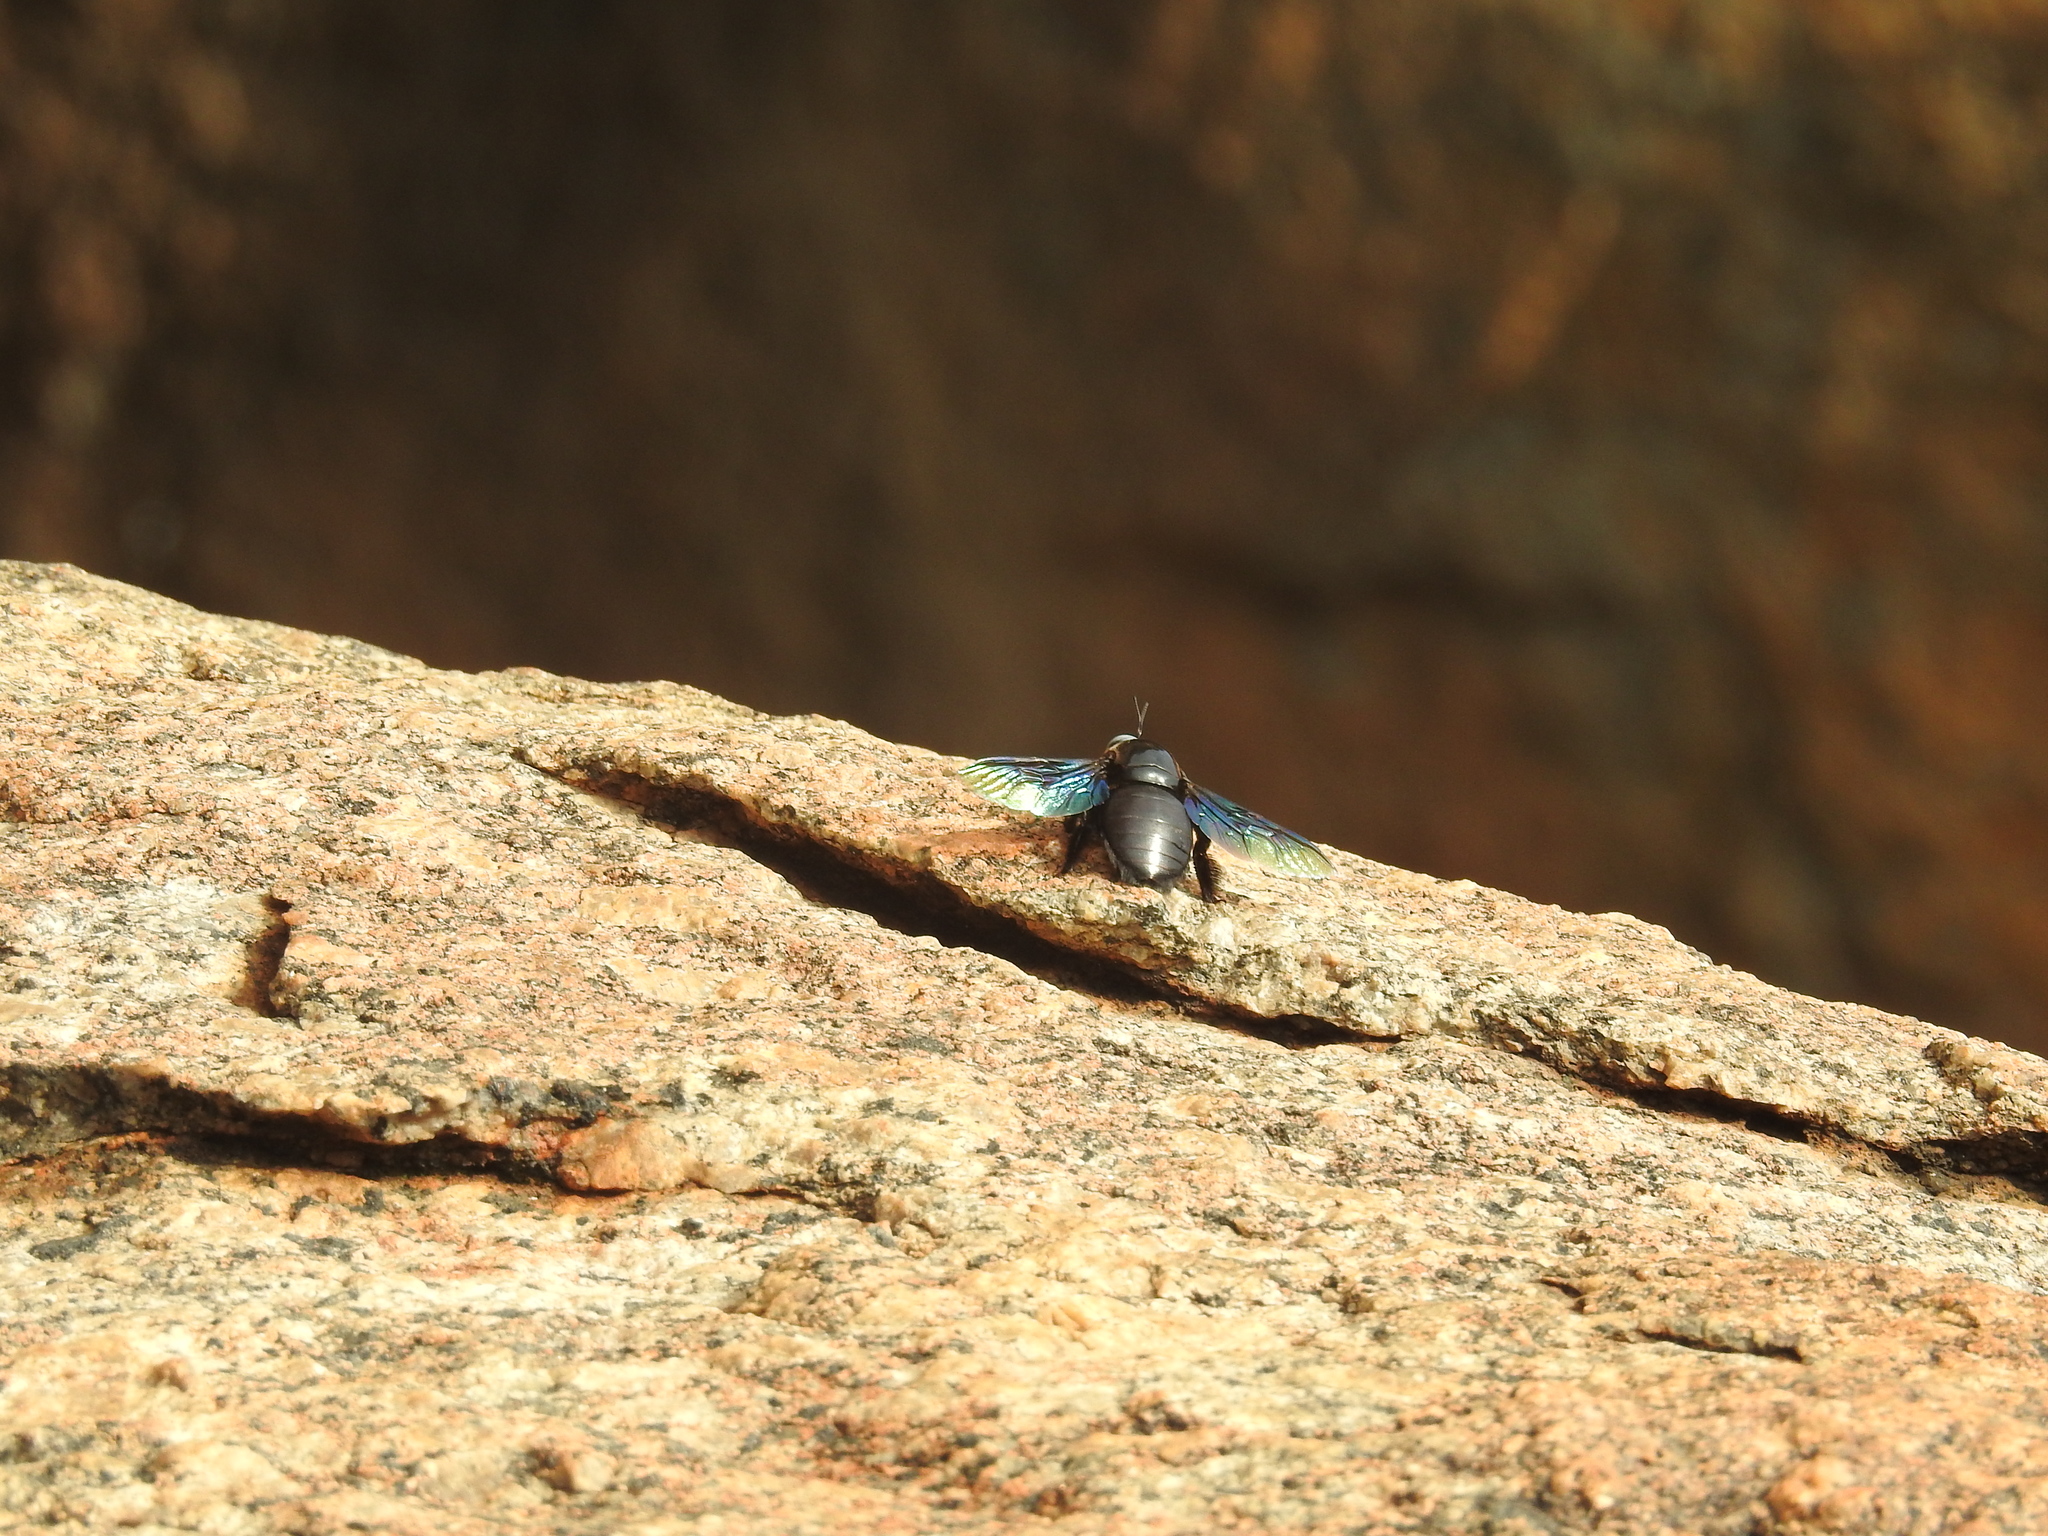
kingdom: Animalia
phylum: Arthropoda
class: Insecta
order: Hymenoptera
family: Apidae
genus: Xylocopa
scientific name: Xylocopa tenuiscapa
